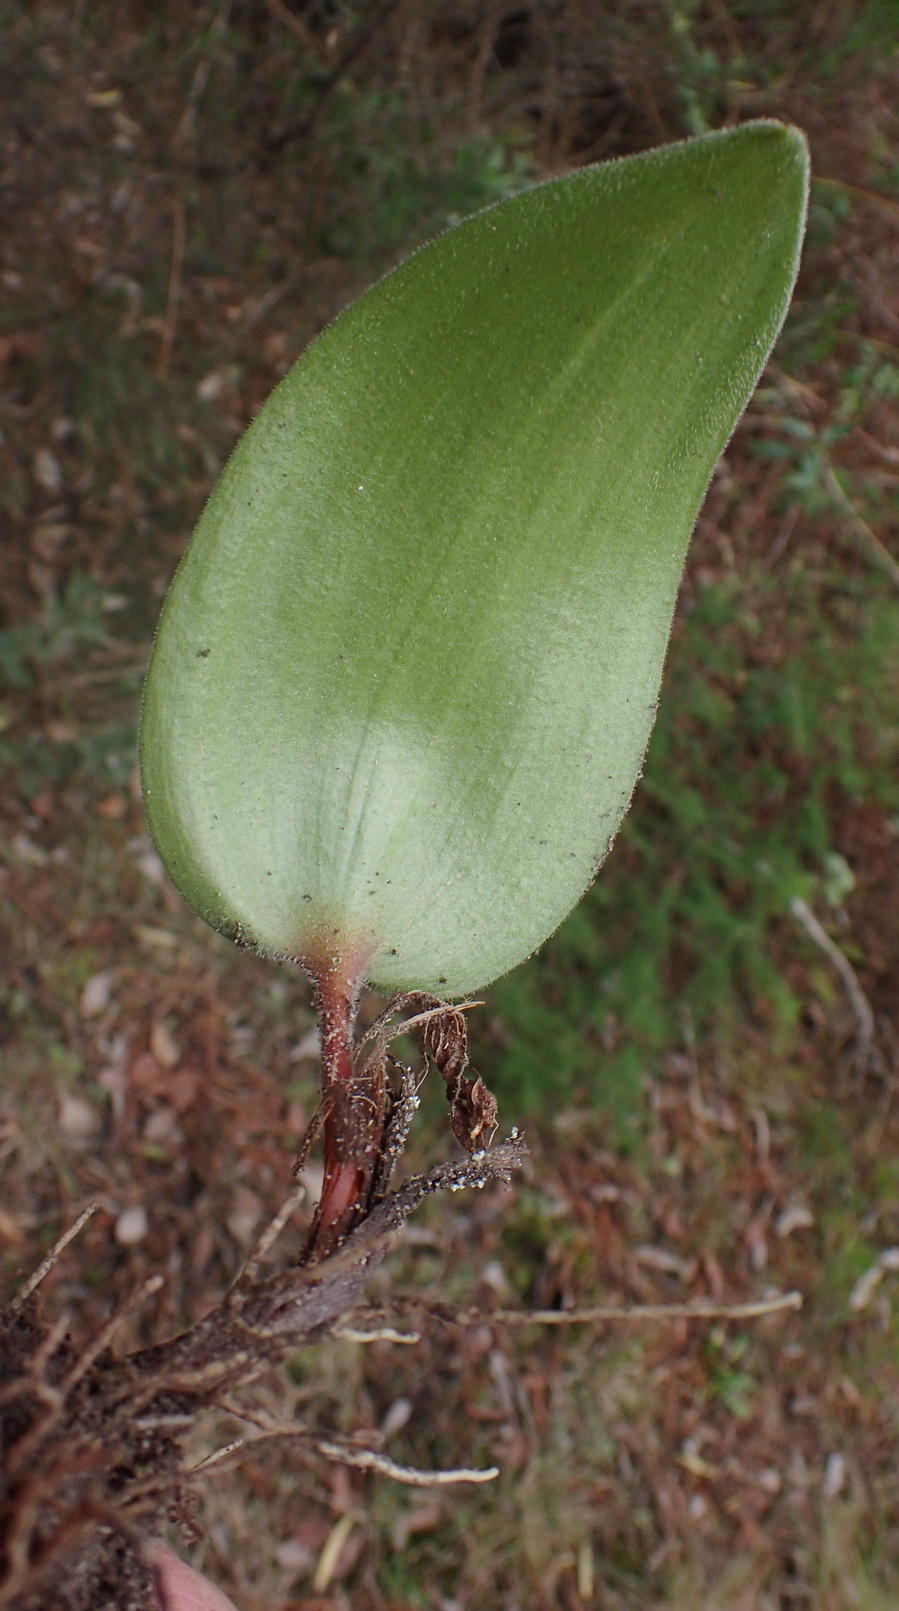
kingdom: Plantae
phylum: Tracheophyta
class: Liliopsida
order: Asparagales
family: Asparagaceae
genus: Eriospermum
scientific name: Eriospermum dielsianum
